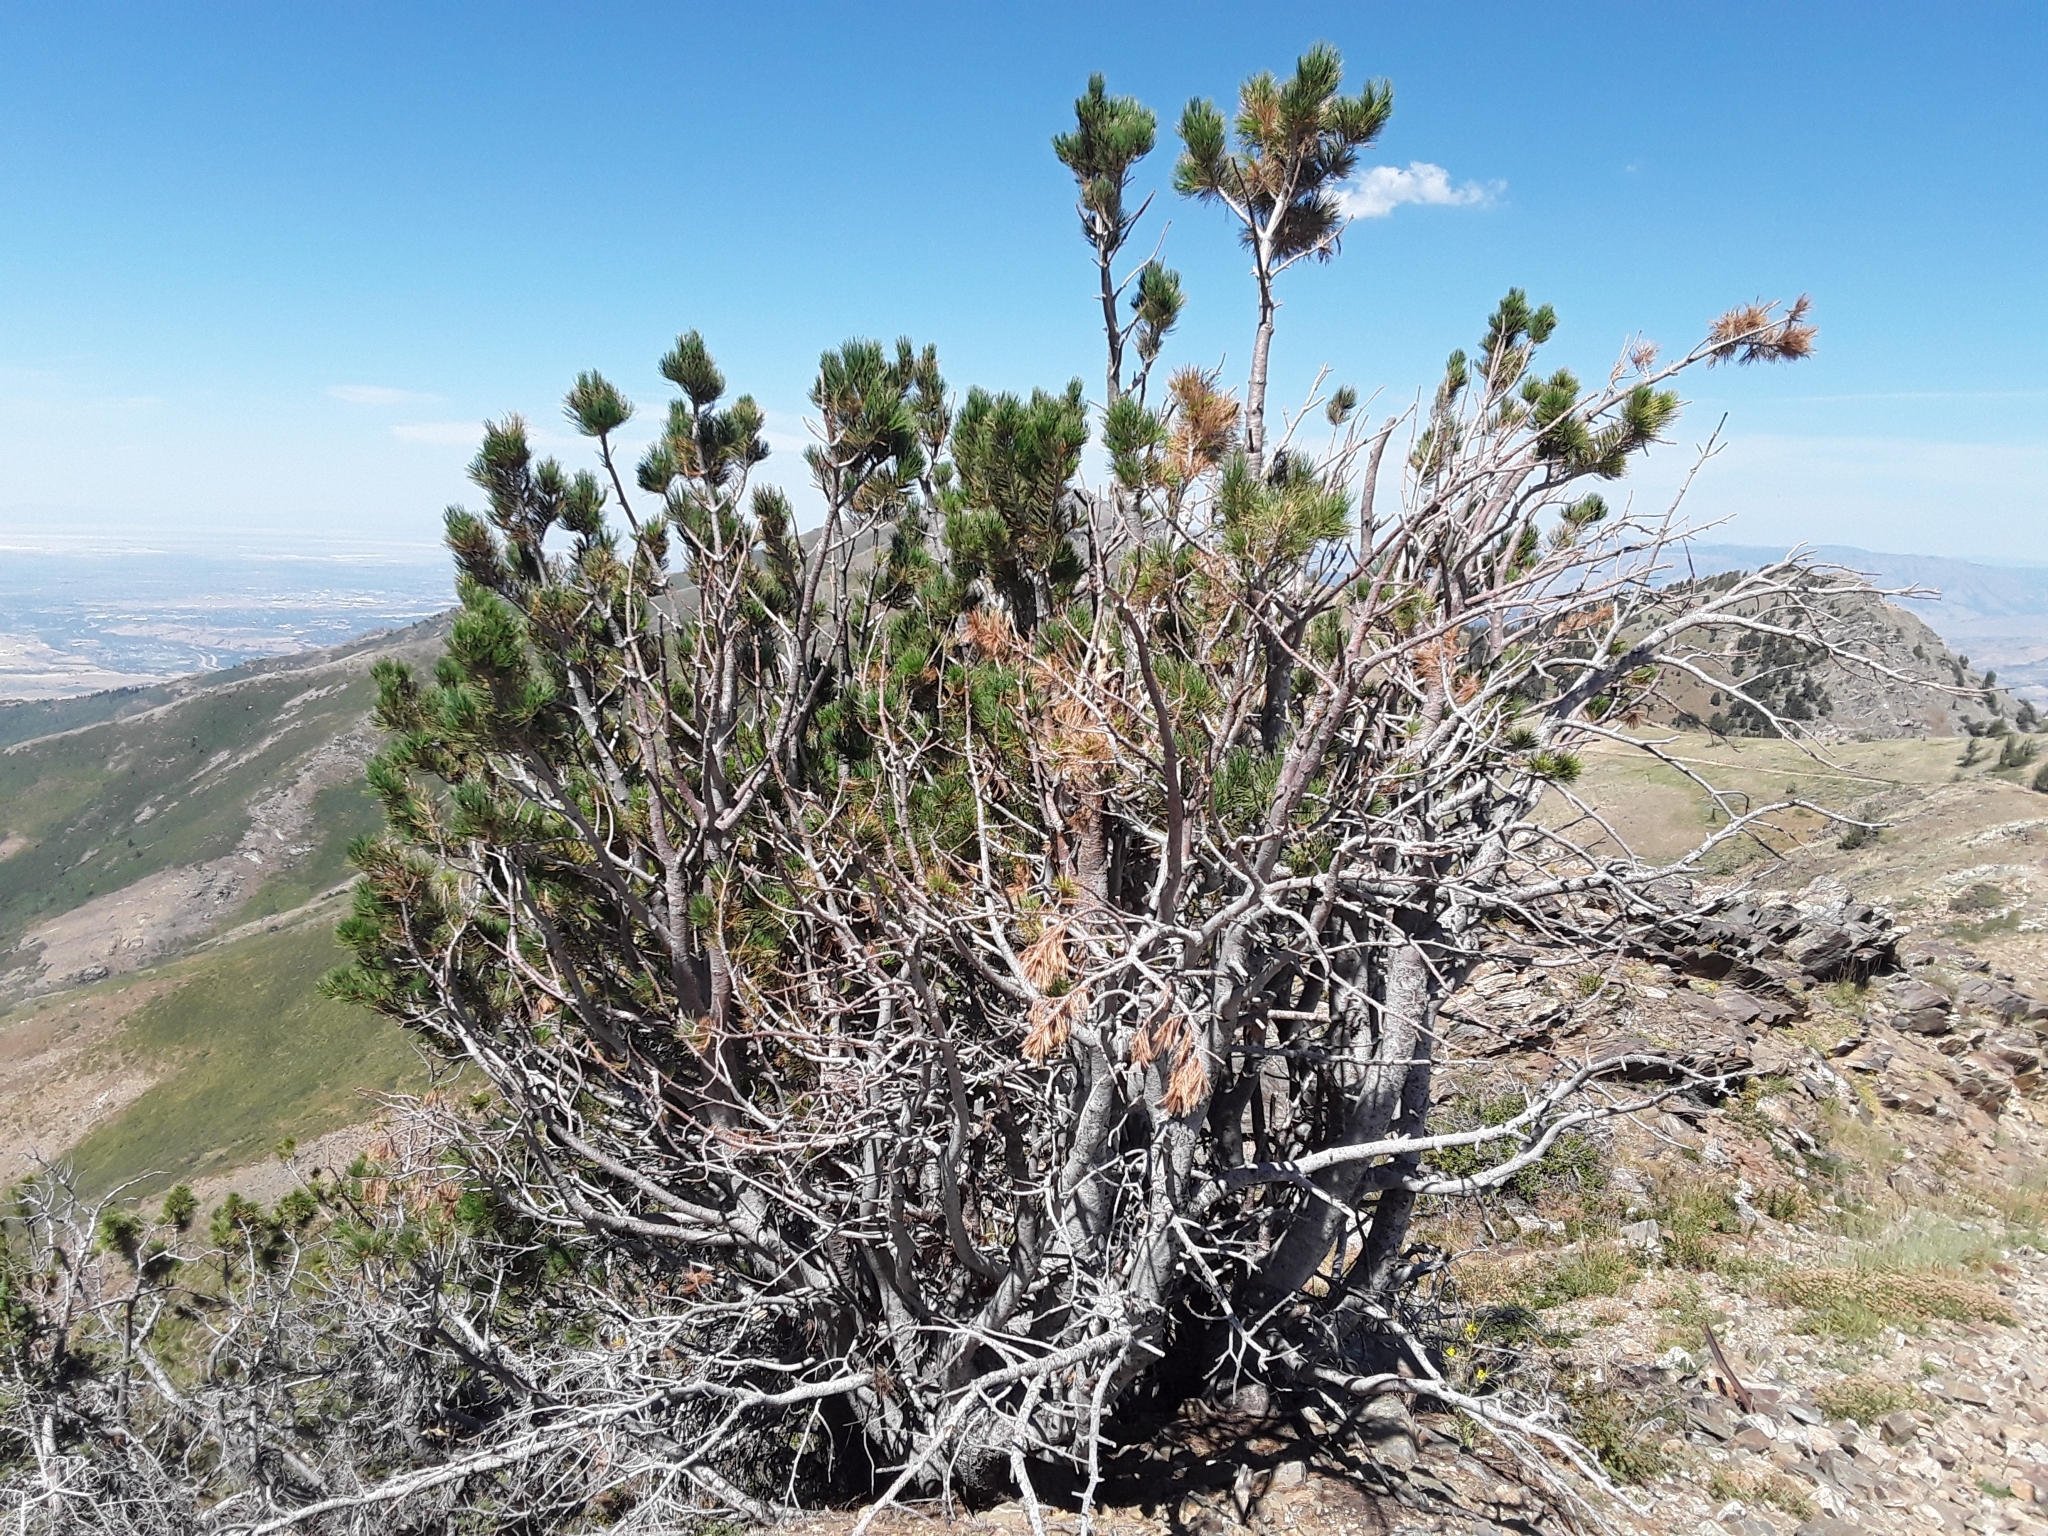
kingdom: Plantae
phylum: Tracheophyta
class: Pinopsida
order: Pinales
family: Pinaceae
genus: Pinus
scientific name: Pinus flexilis
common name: Limber pine
